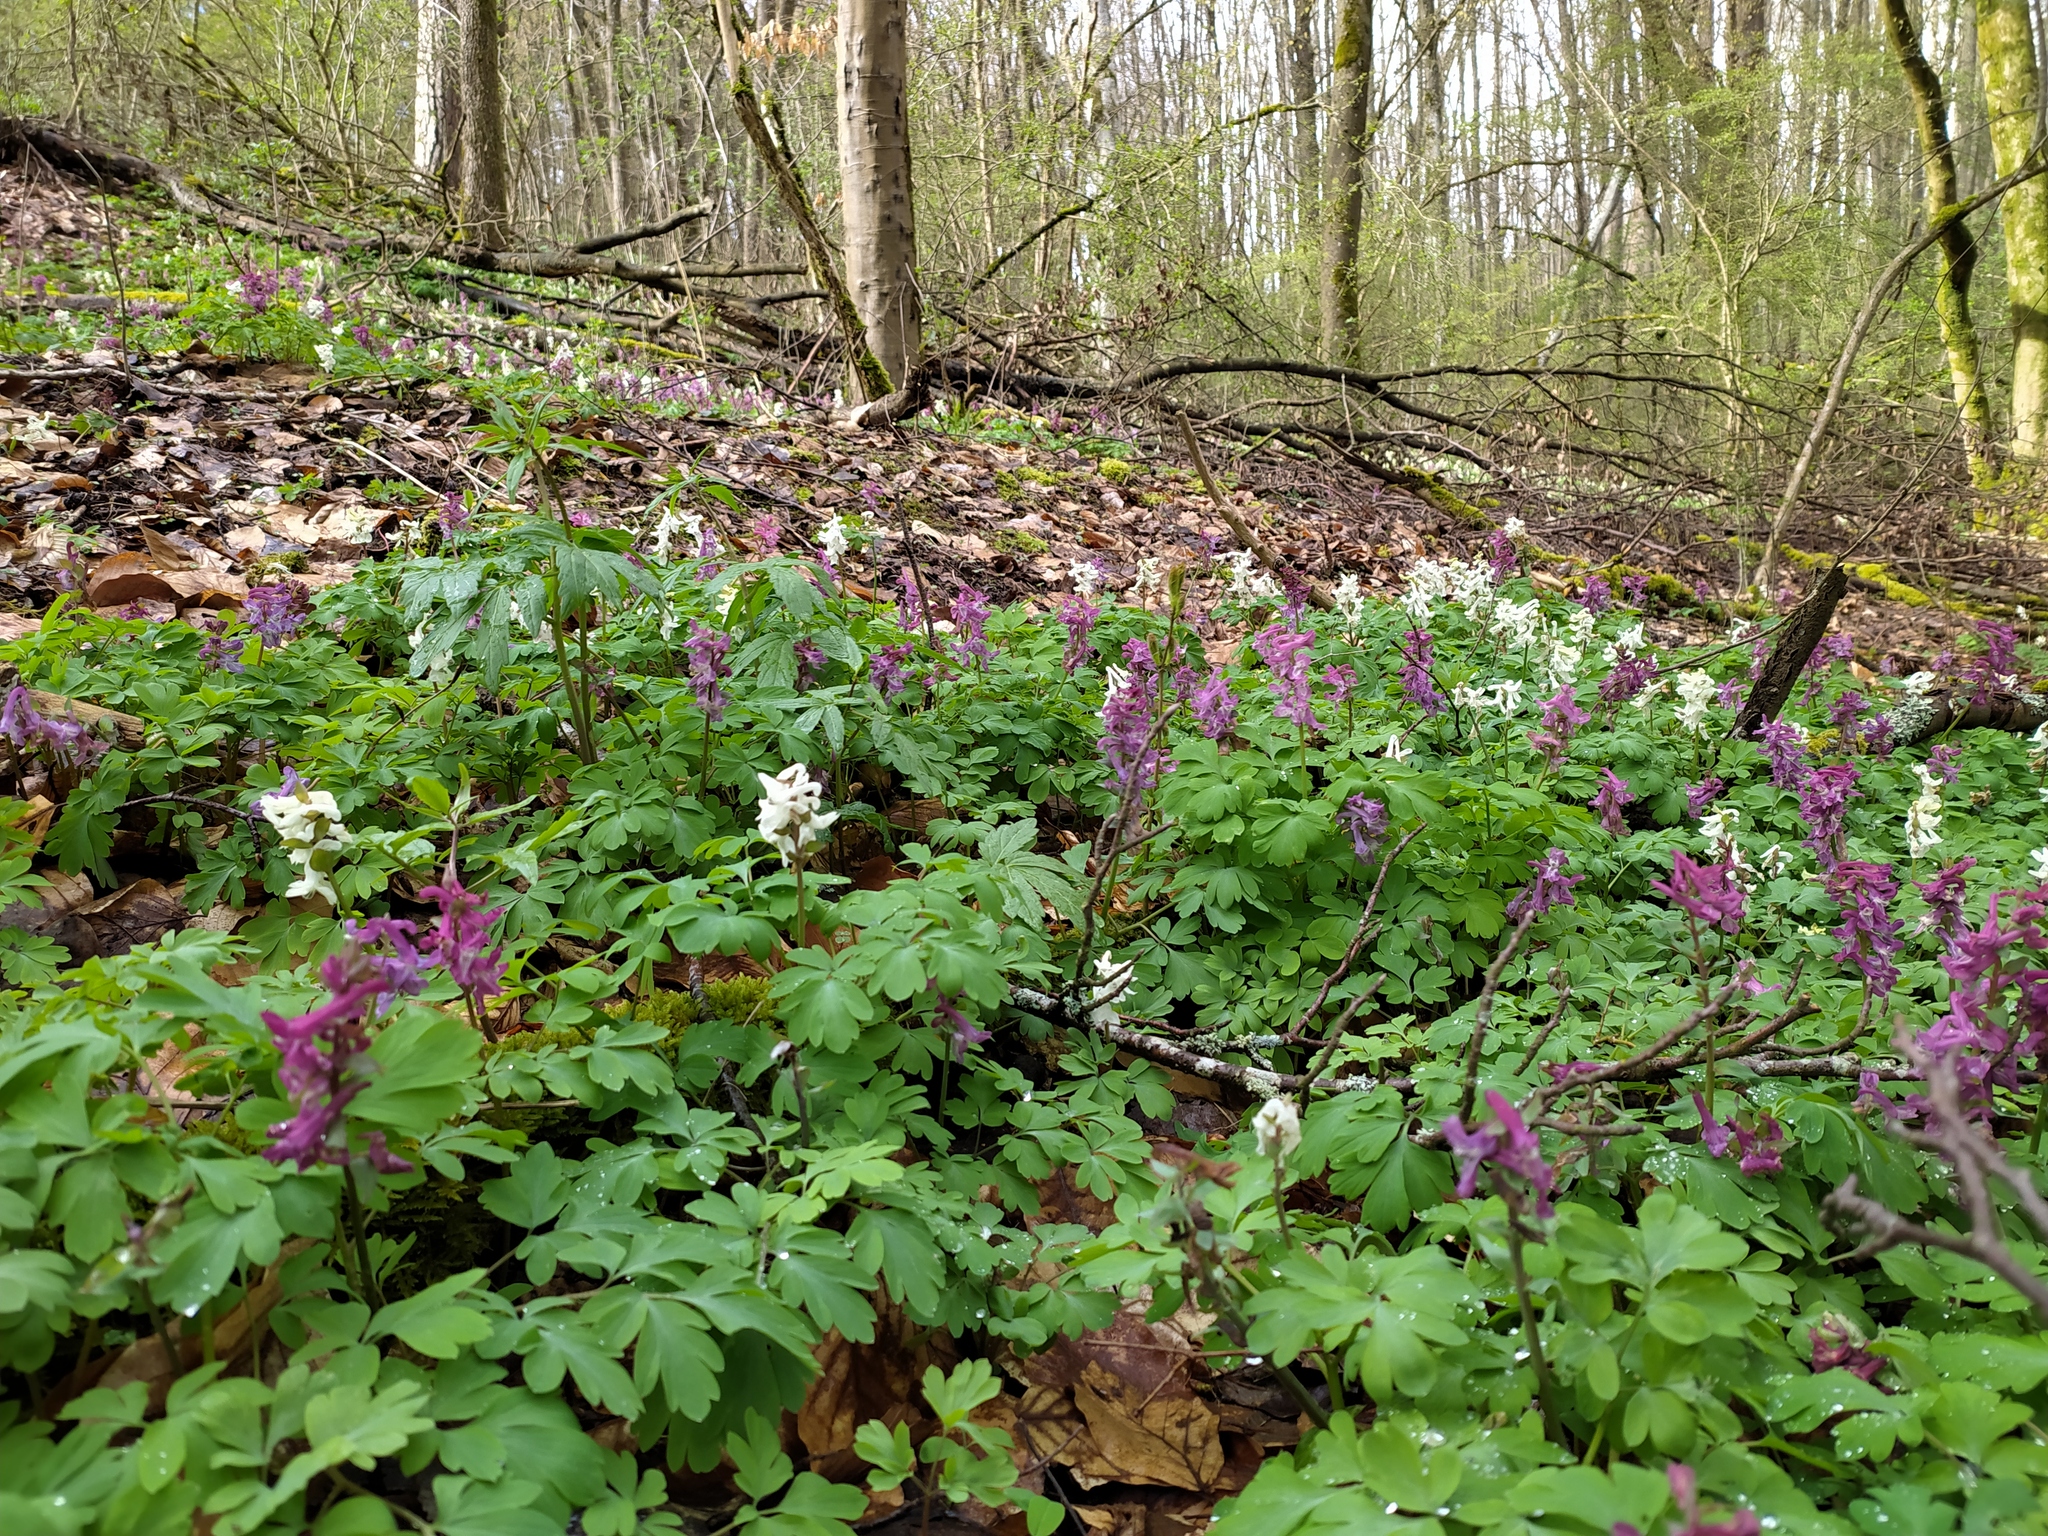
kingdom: Plantae
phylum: Tracheophyta
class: Magnoliopsida
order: Ranunculales
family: Papaveraceae
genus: Corydalis
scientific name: Corydalis cava
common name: Hollowroot
